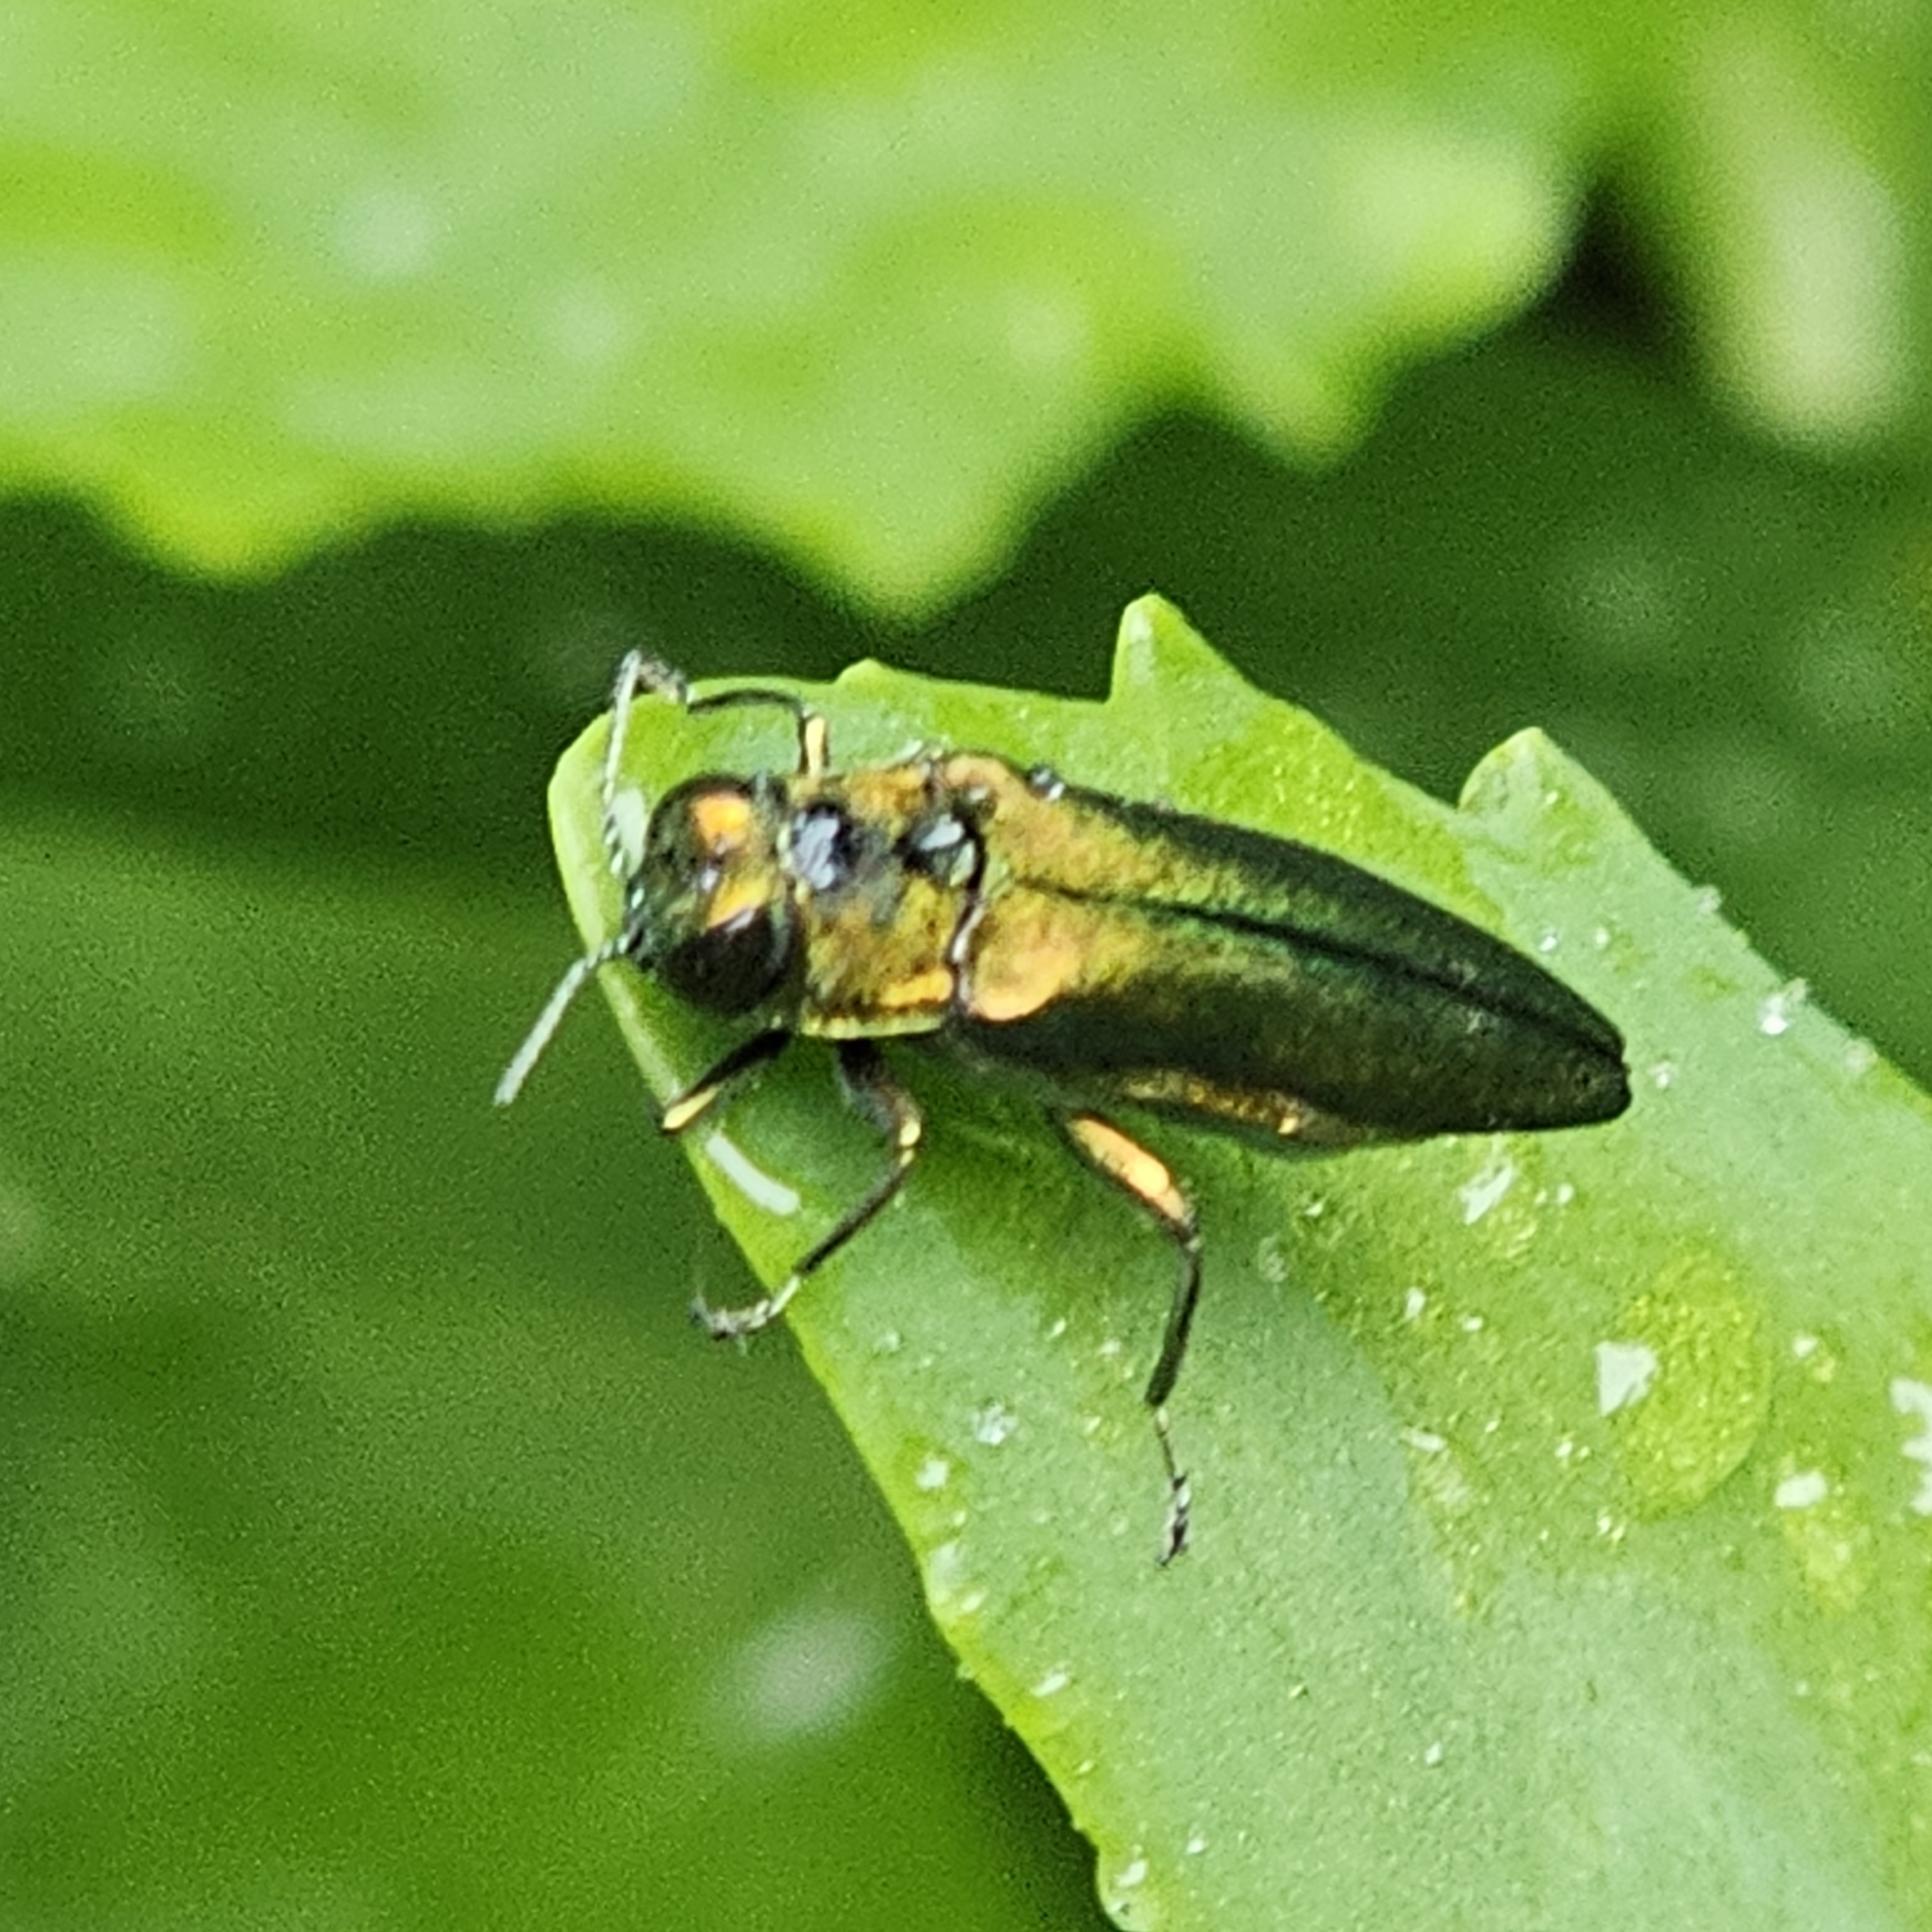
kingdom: Animalia
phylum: Arthropoda
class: Insecta
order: Coleoptera
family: Buprestidae
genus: Agrilus
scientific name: Agrilus planipennis
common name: Emerald ash borer
